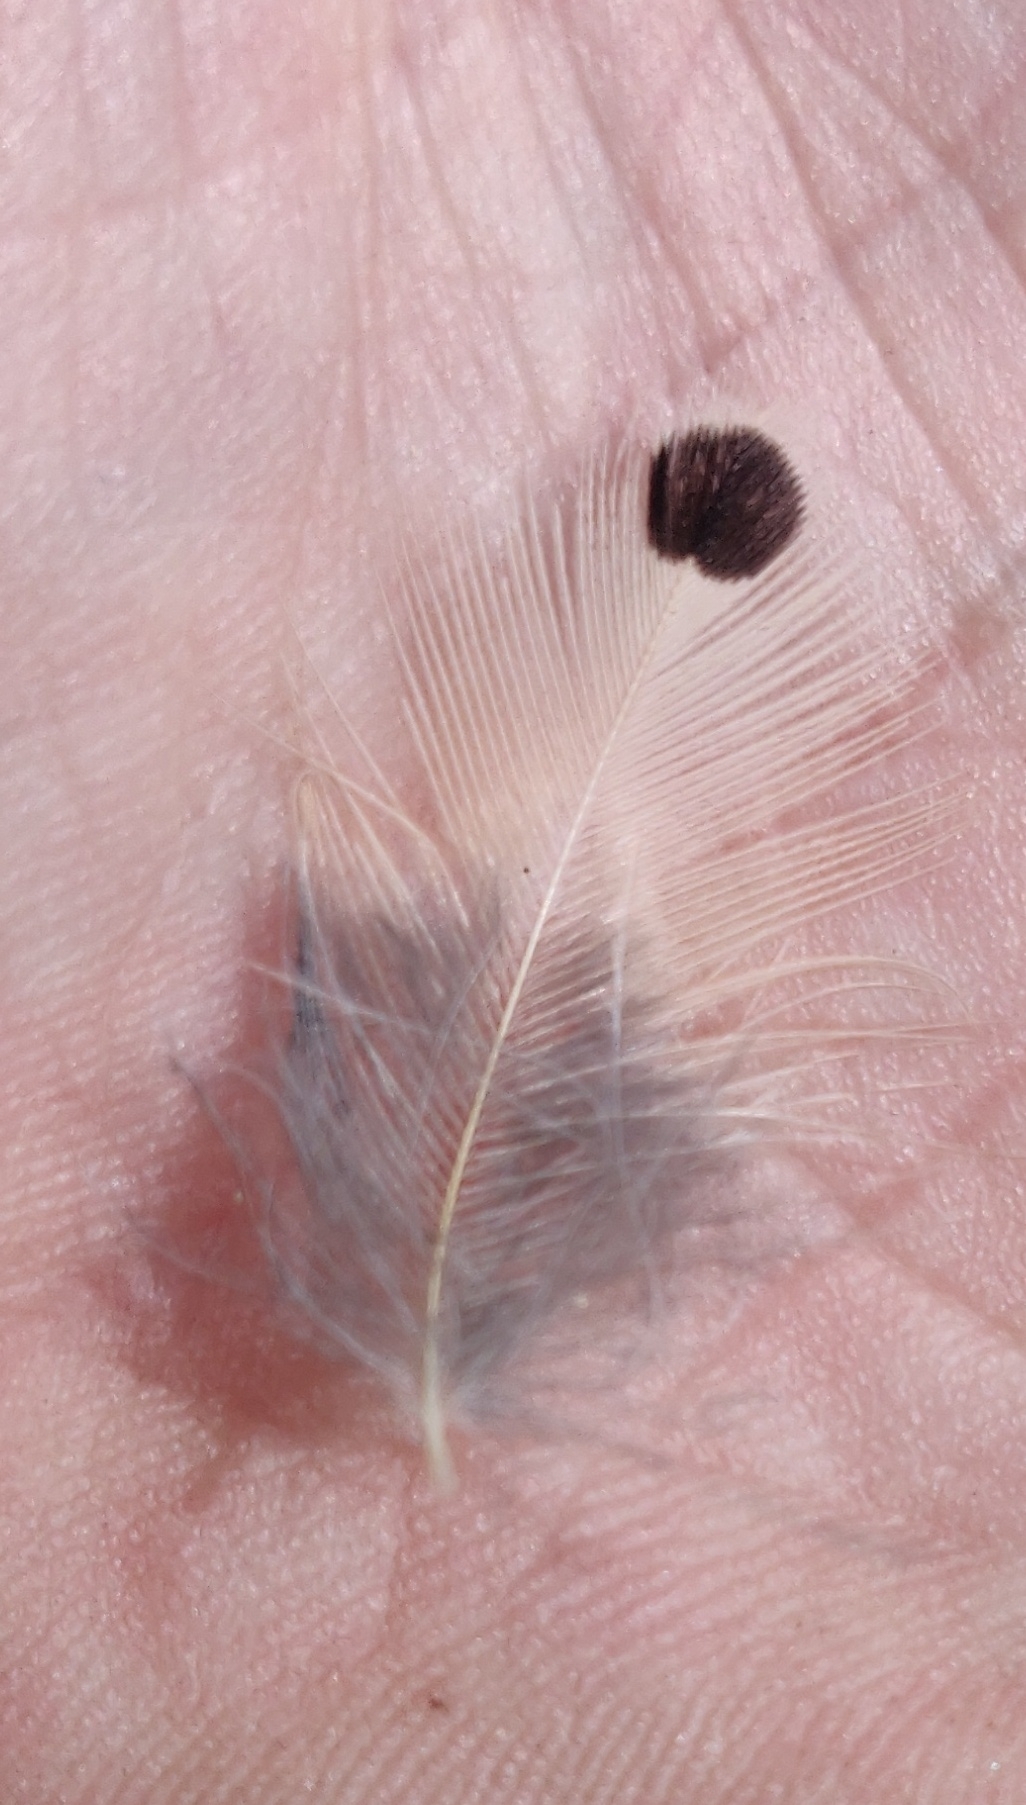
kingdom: Animalia
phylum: Chordata
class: Aves
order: Piciformes
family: Picidae
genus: Colaptes
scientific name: Colaptes auratus
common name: Northern flicker
